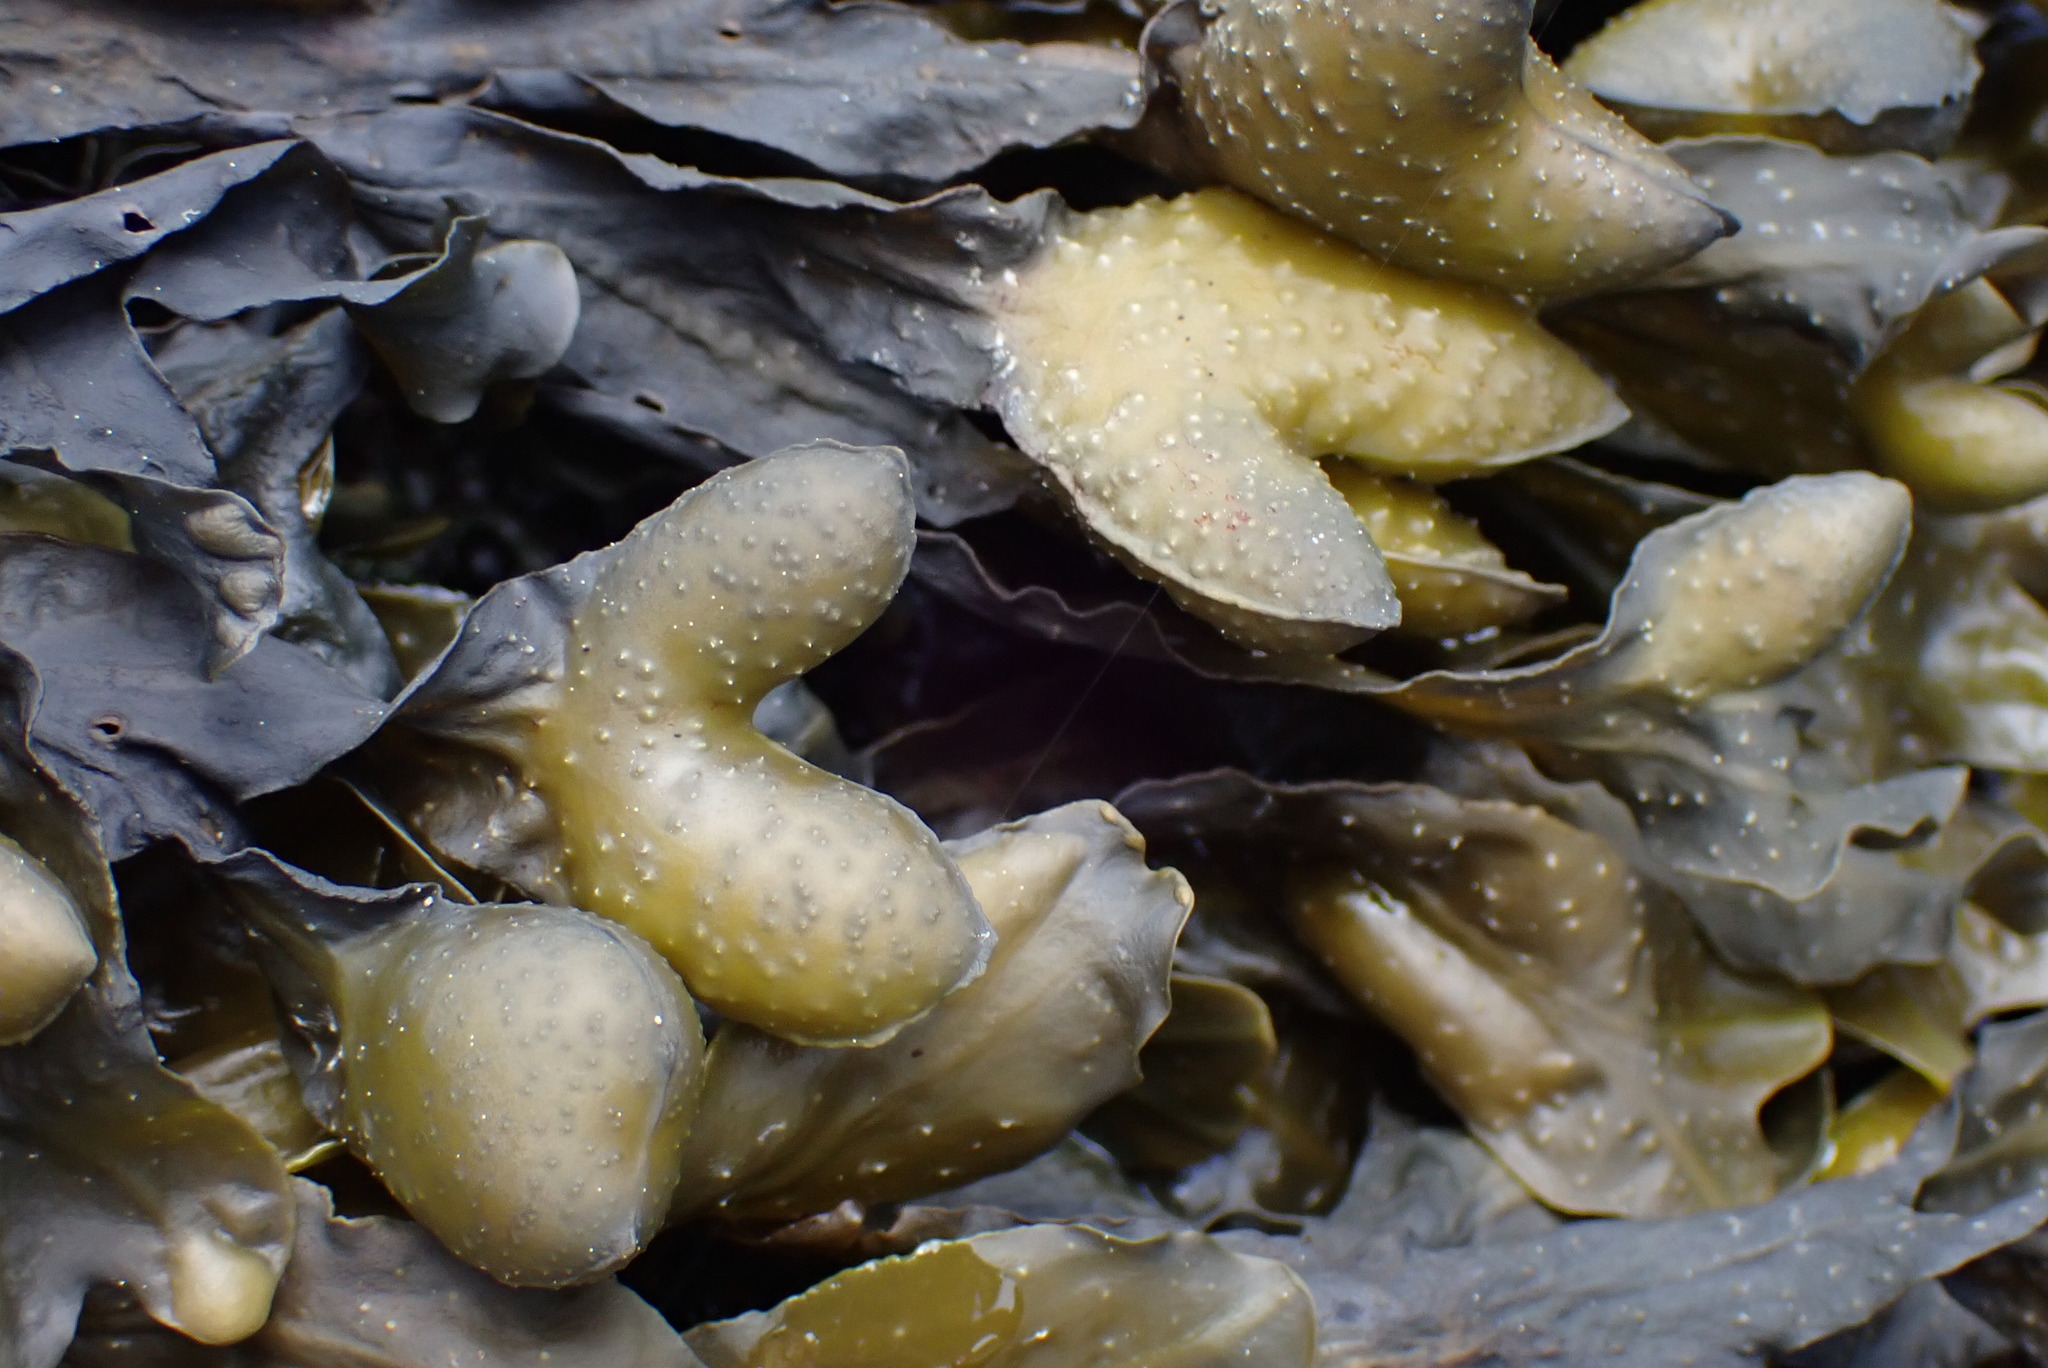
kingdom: Chromista
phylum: Ochrophyta
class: Phaeophyceae
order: Fucales
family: Fucaceae
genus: Fucus
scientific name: Fucus distichus
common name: Rockweed
